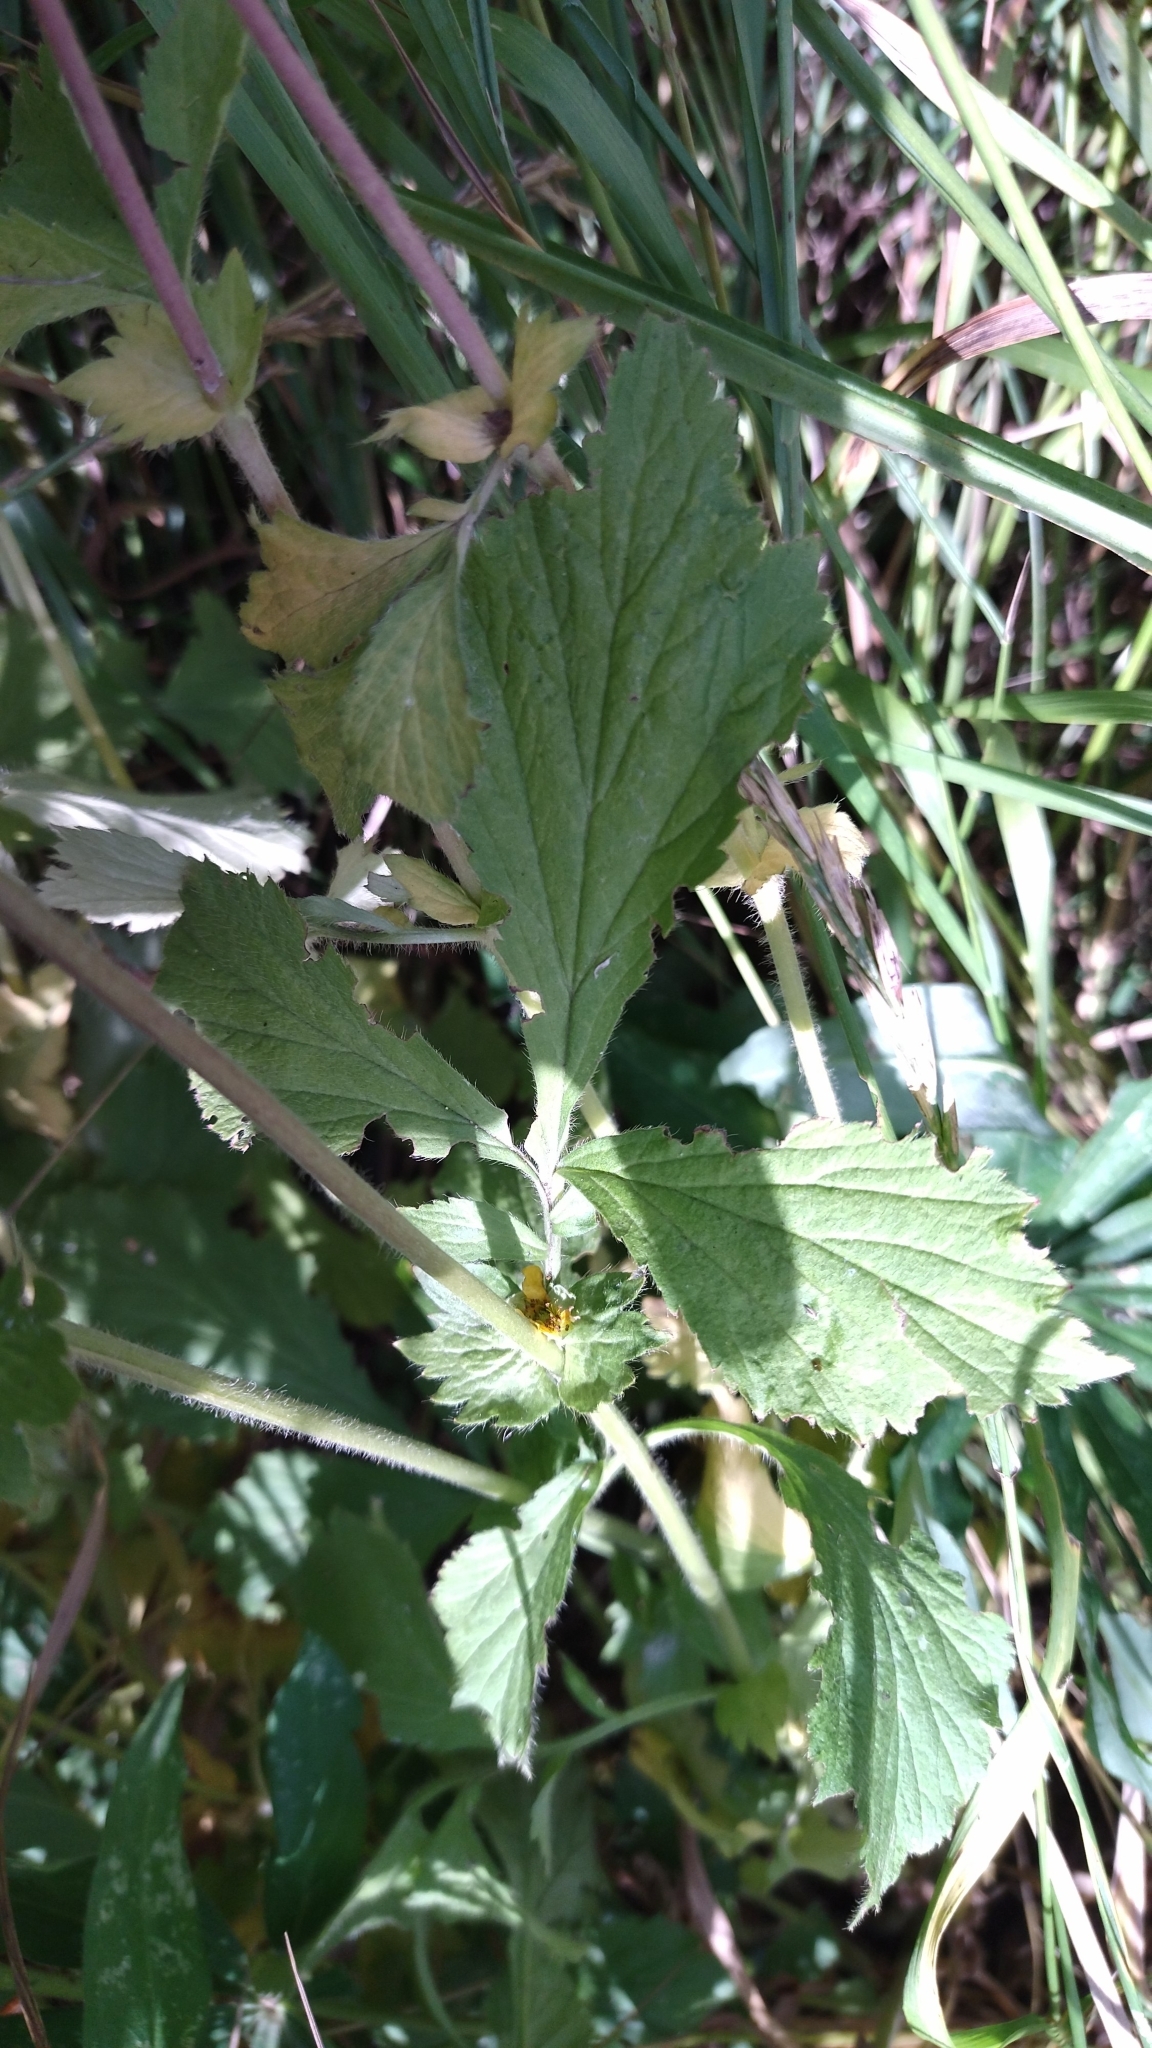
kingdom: Plantae
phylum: Tracheophyta
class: Magnoliopsida
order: Rosales
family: Rosaceae
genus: Geum
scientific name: Geum aleppicum
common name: Yellow avens
